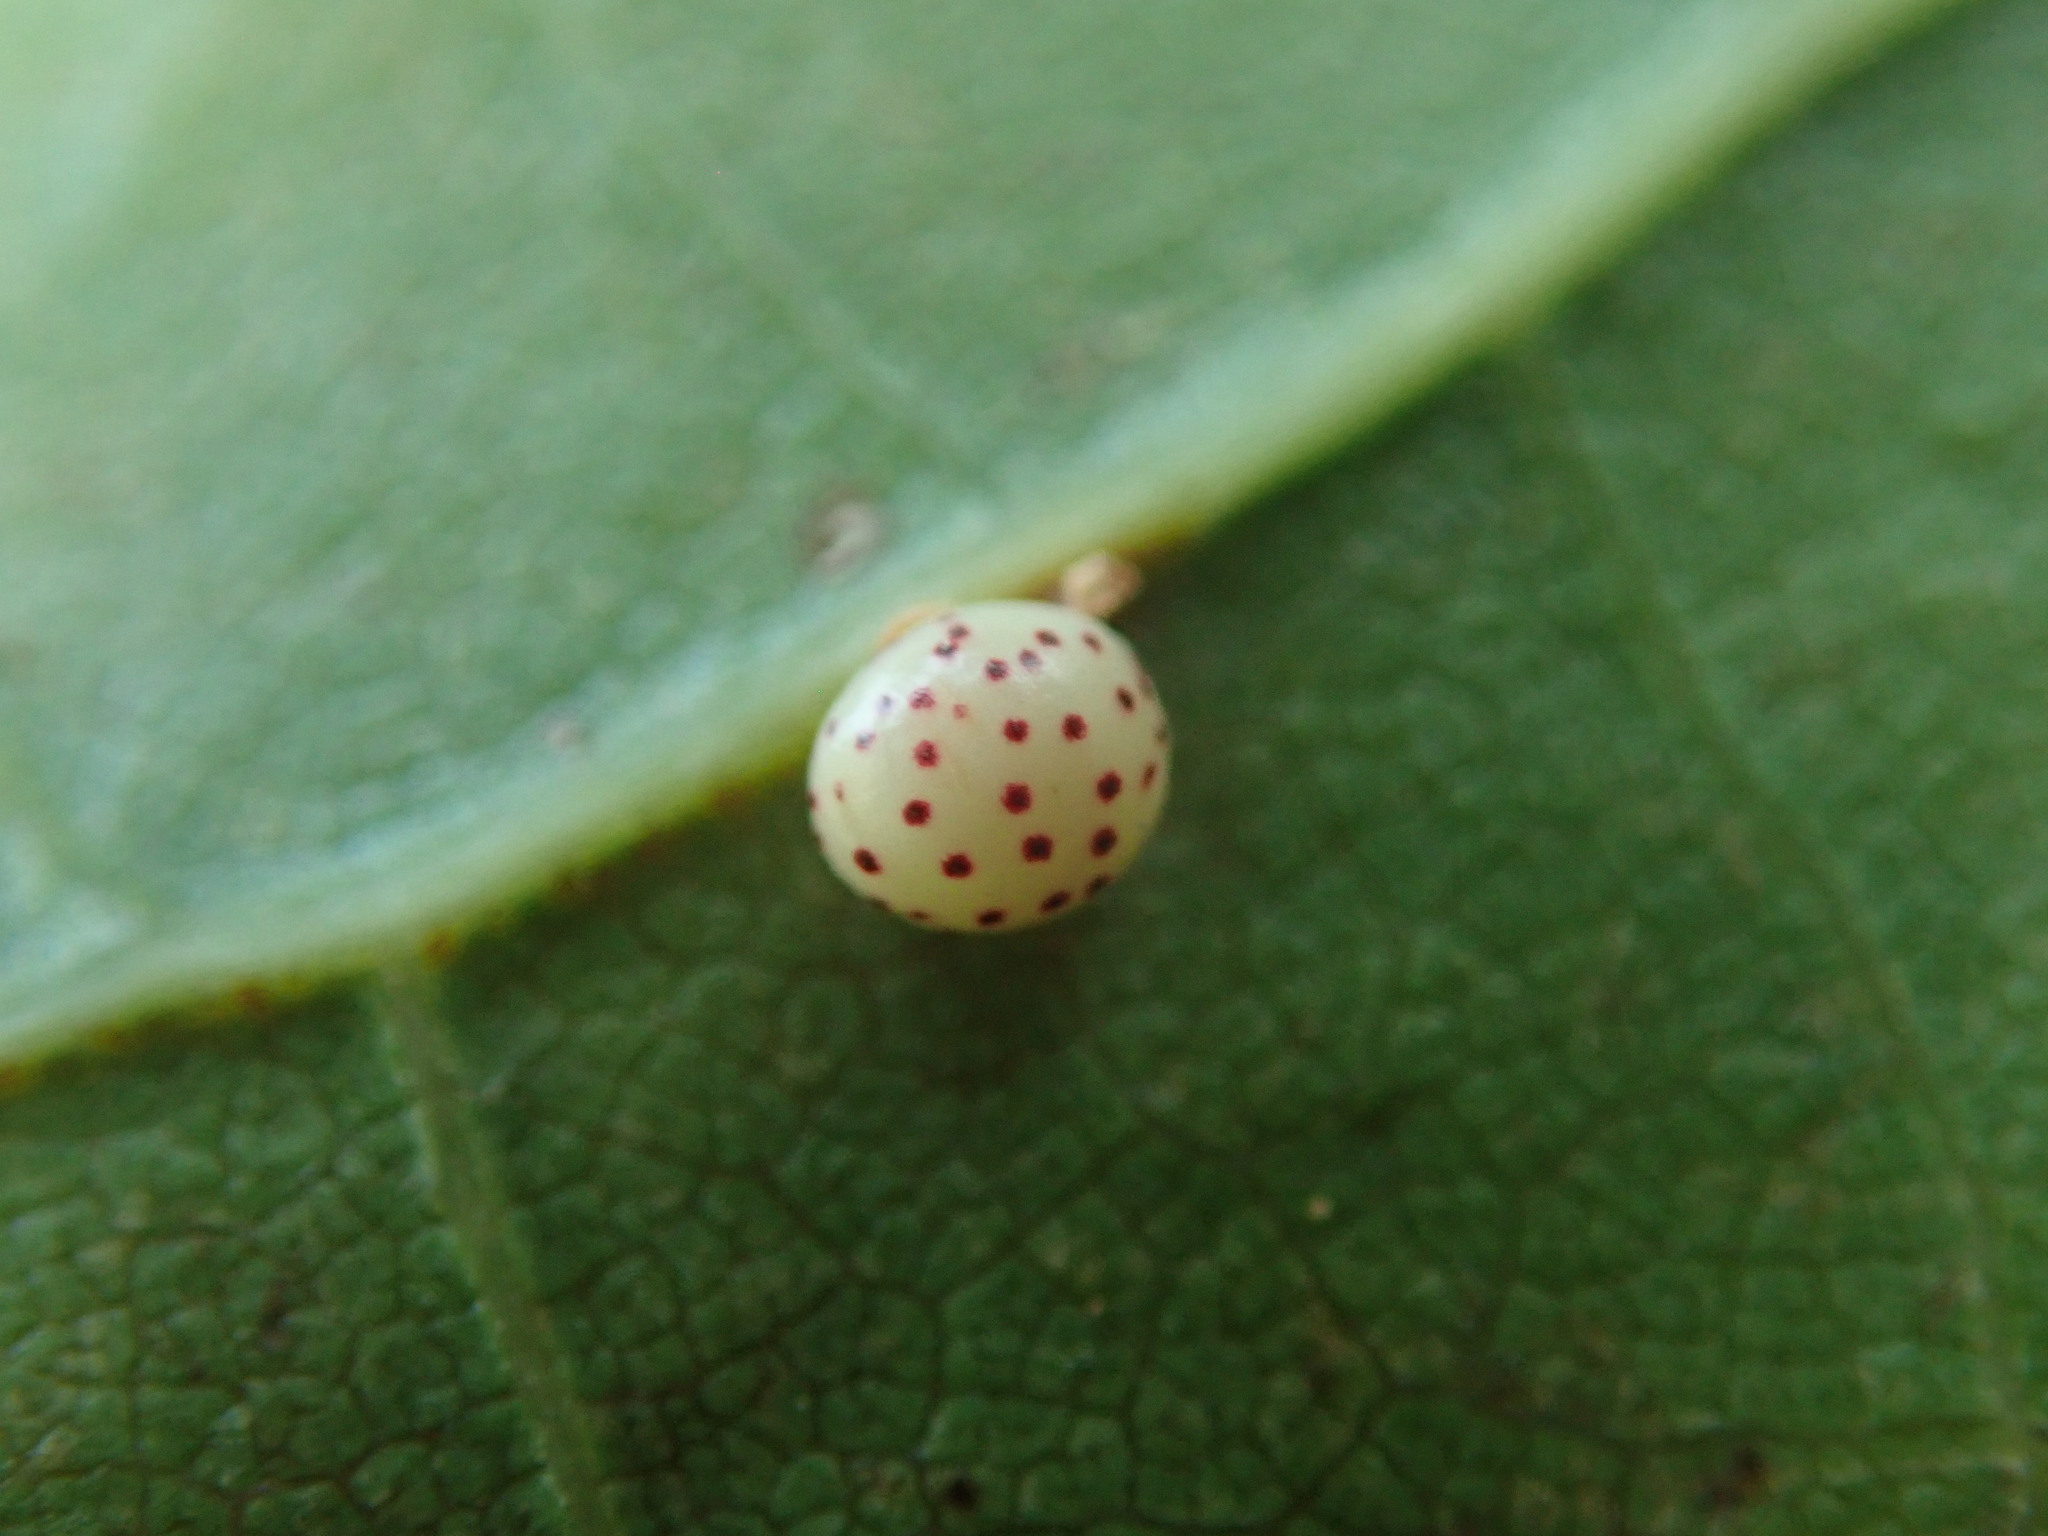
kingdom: Animalia
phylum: Arthropoda
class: Insecta
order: Hymenoptera
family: Cynipidae
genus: Zopheroteras
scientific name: Zopheroteras
